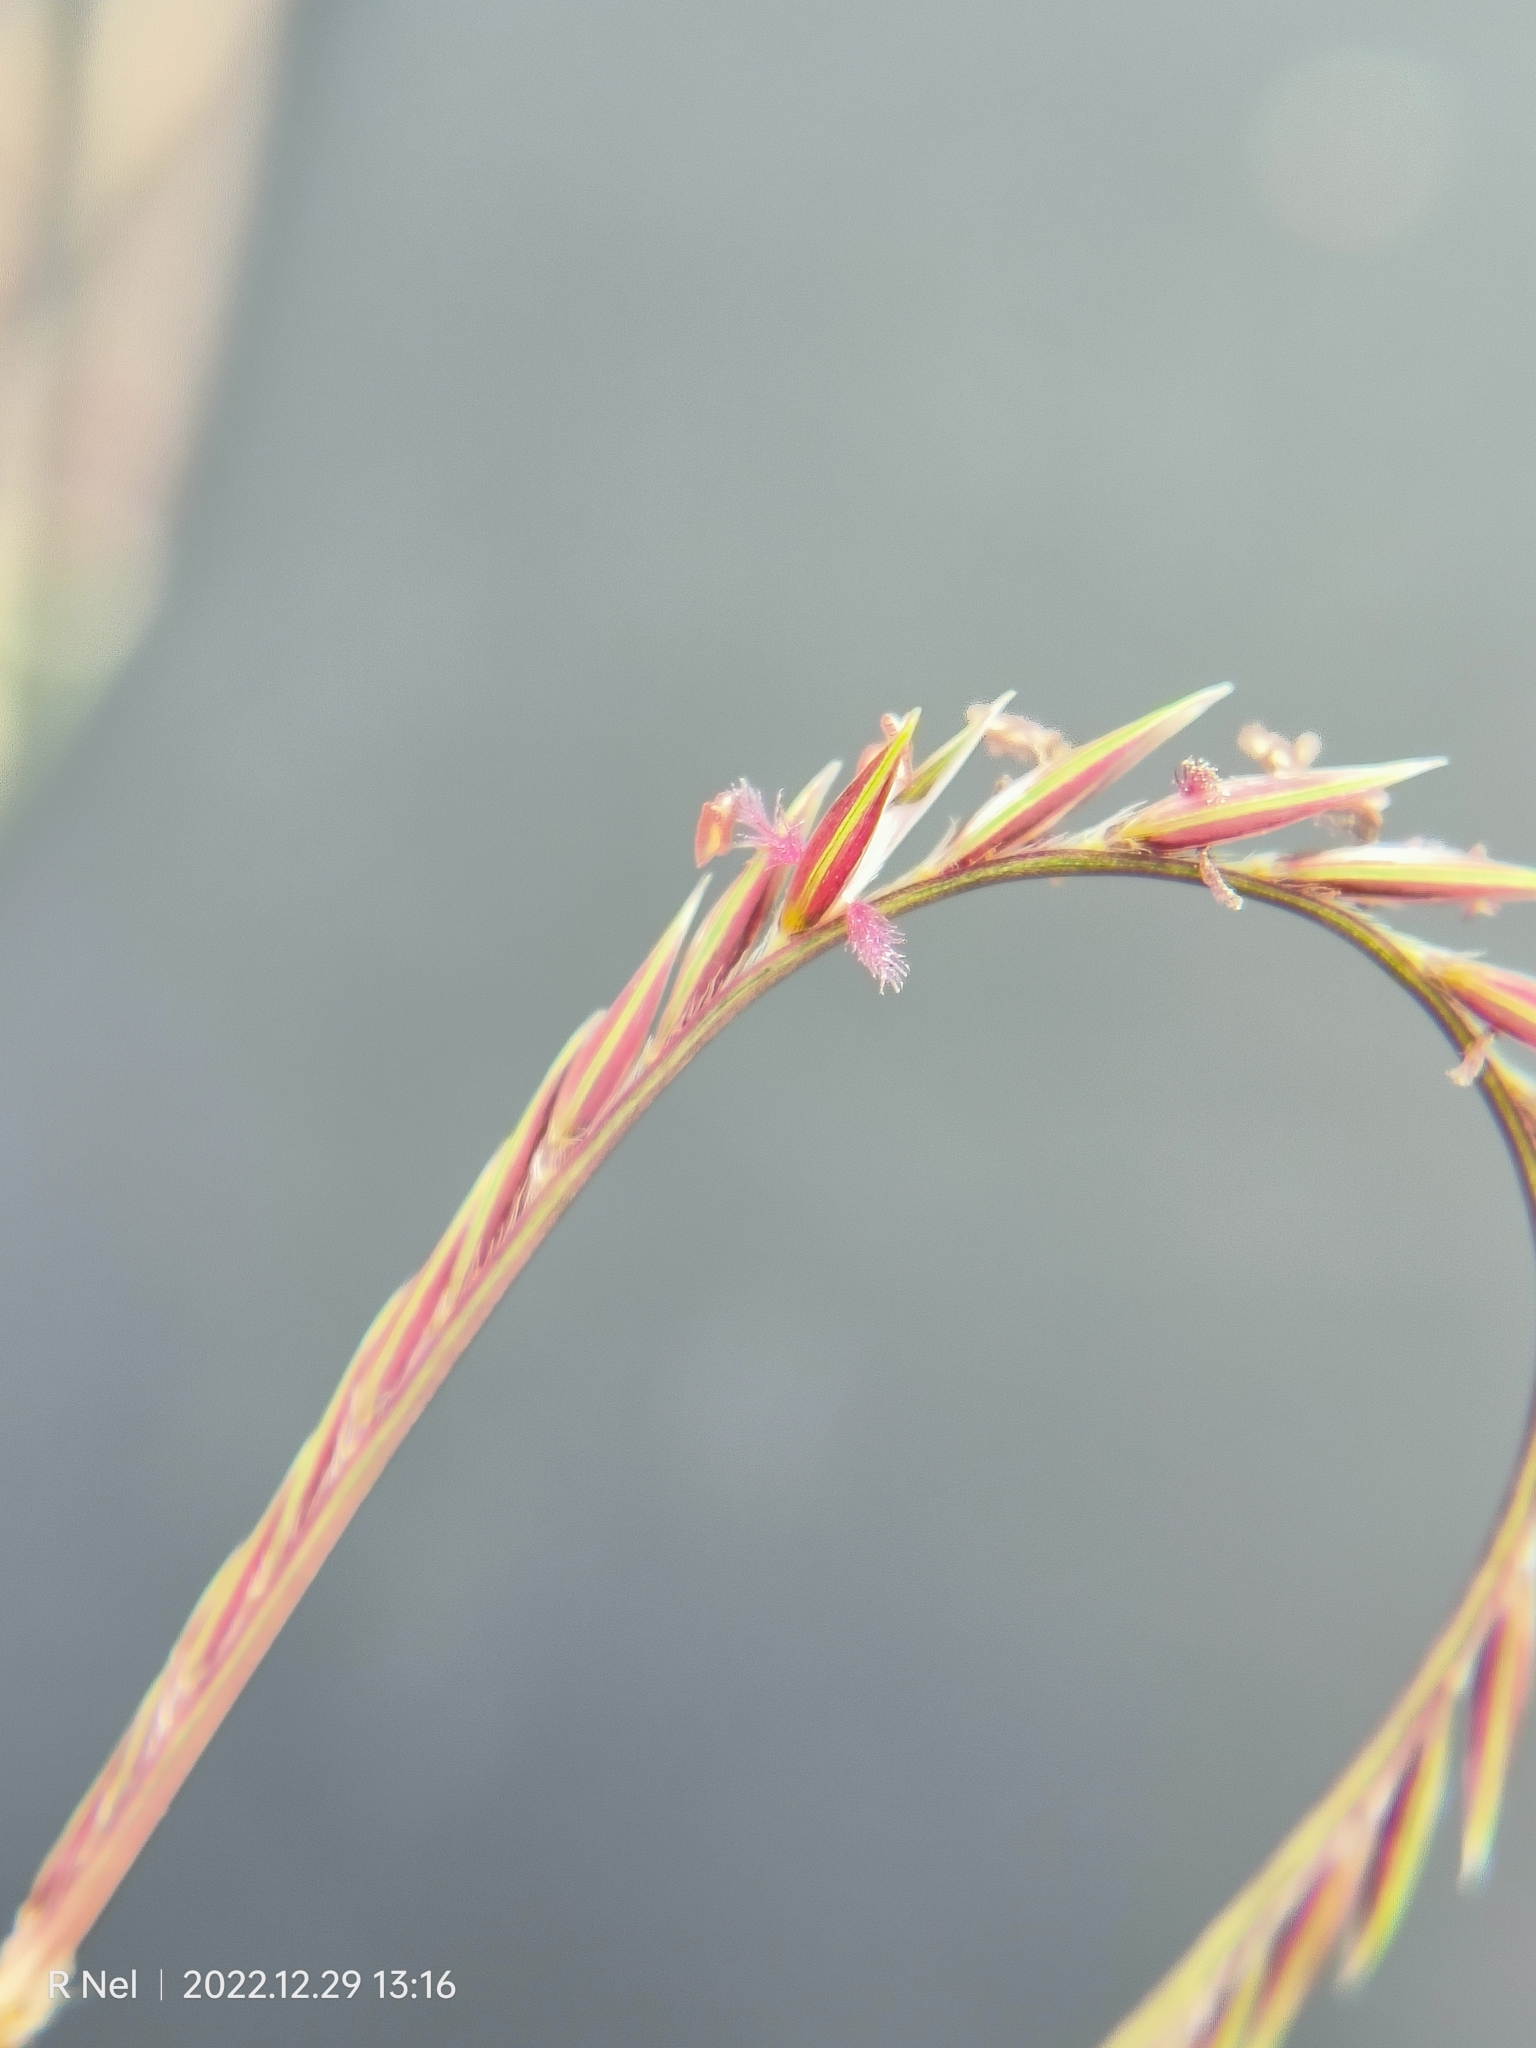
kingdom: Plantae
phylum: Tracheophyta
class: Liliopsida
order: Poales
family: Poaceae
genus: Microchloa
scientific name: Microchloa caffra
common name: Pincushion grass
